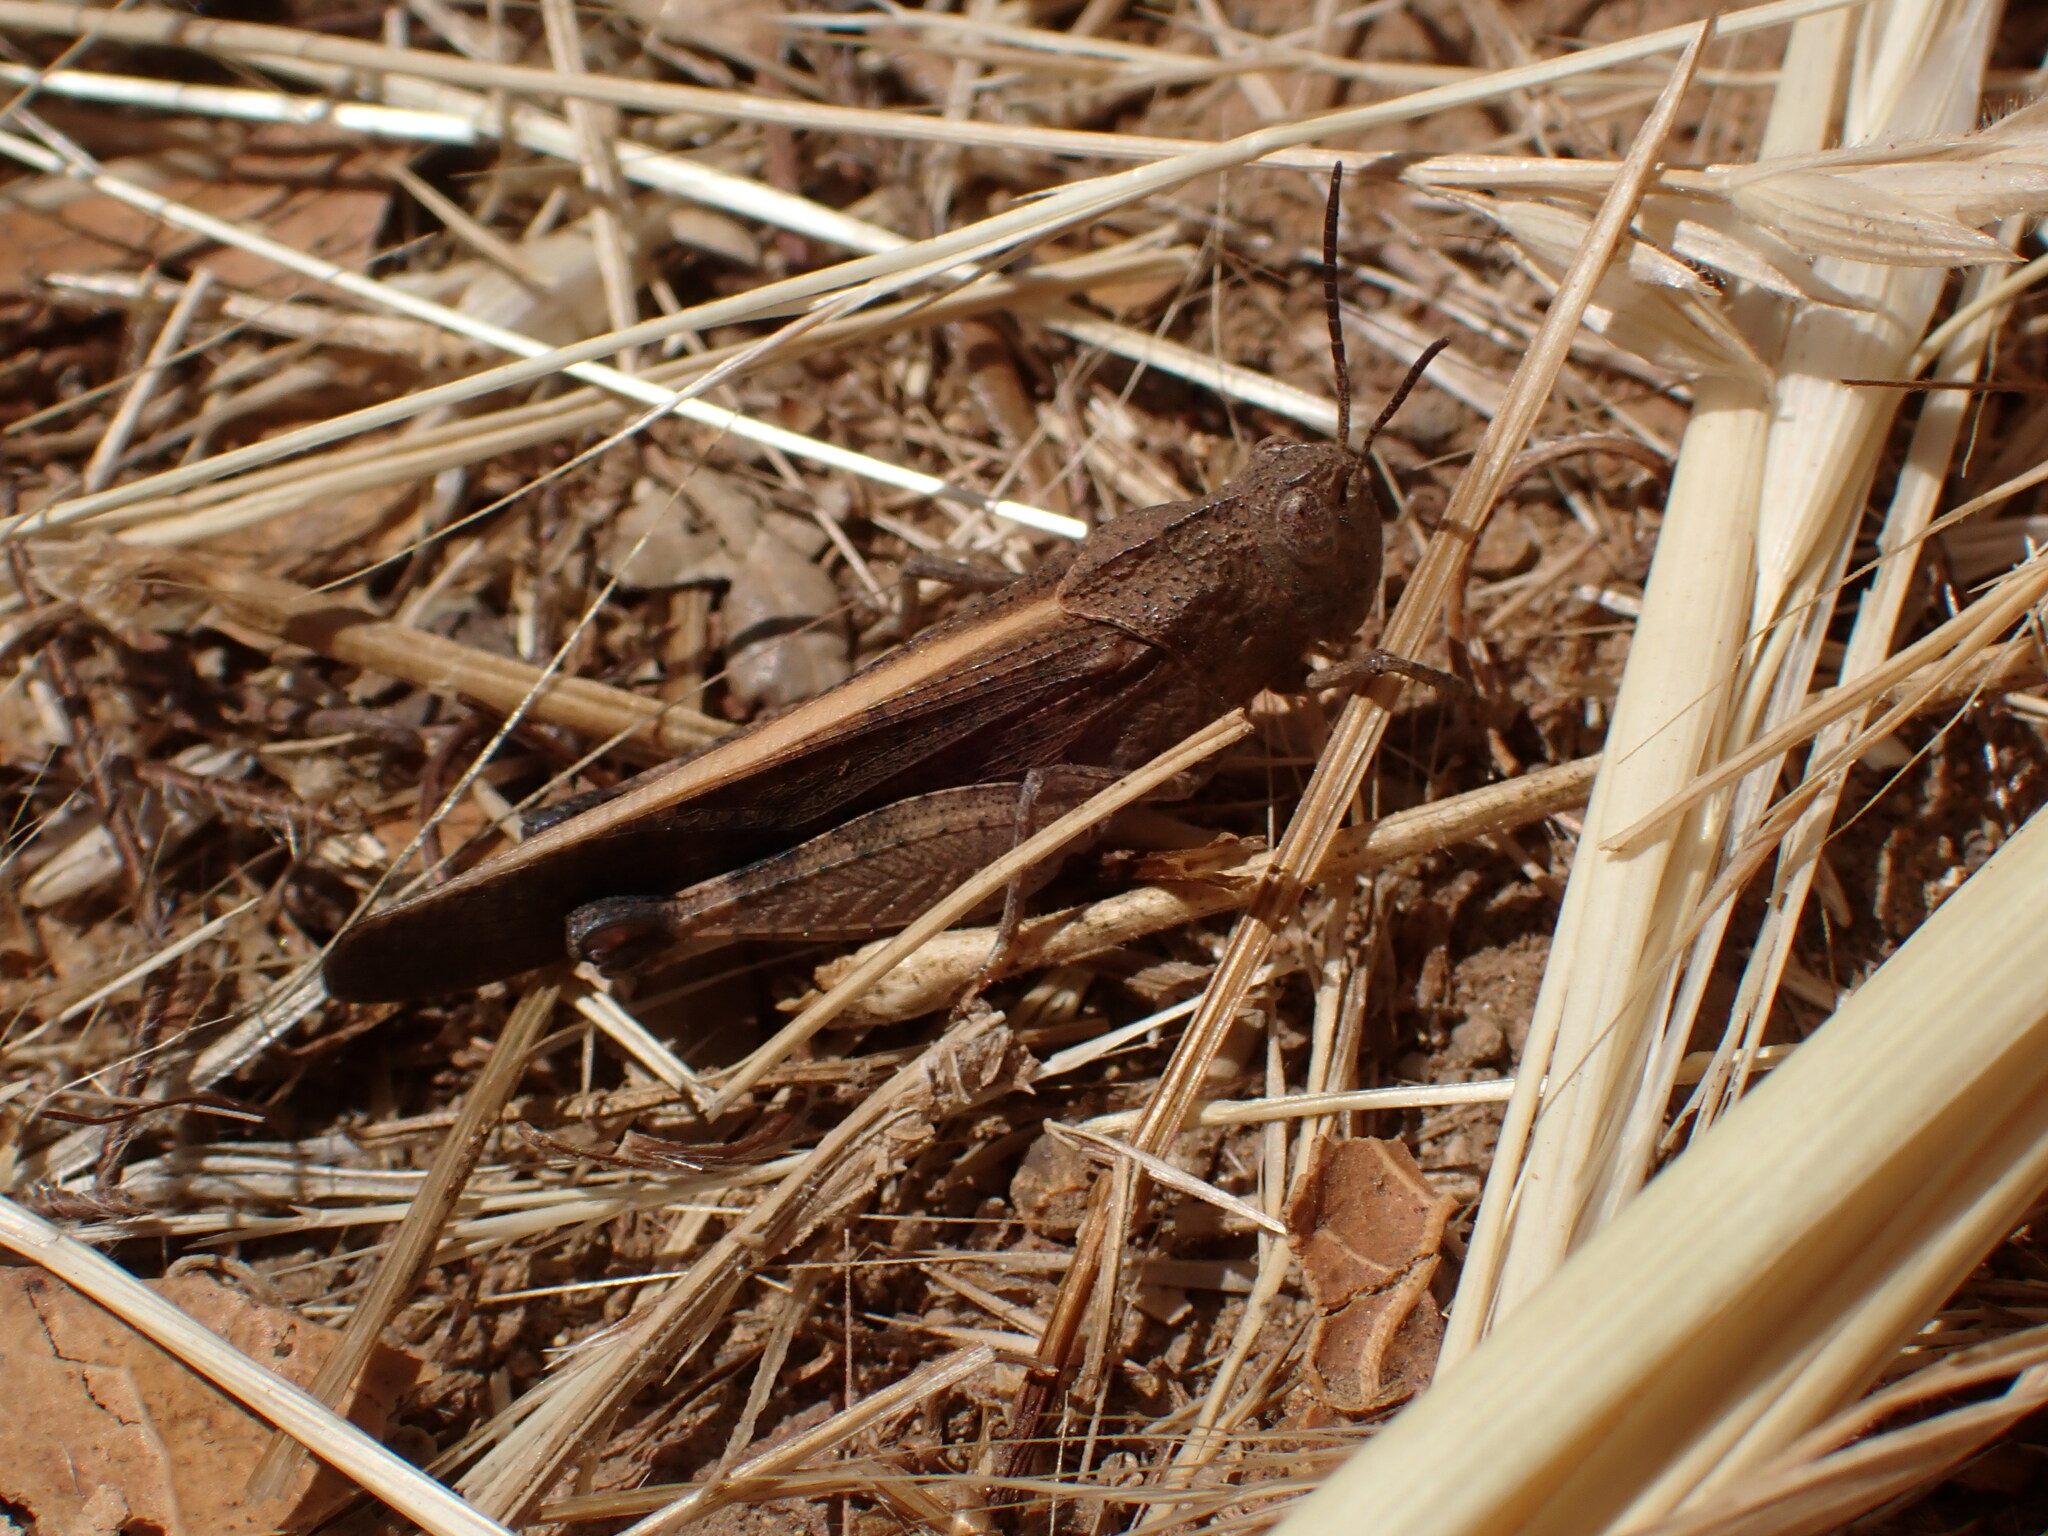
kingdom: Animalia
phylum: Arthropoda
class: Insecta
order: Orthoptera
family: Acrididae
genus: Arphia
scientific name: Arphia ramona
